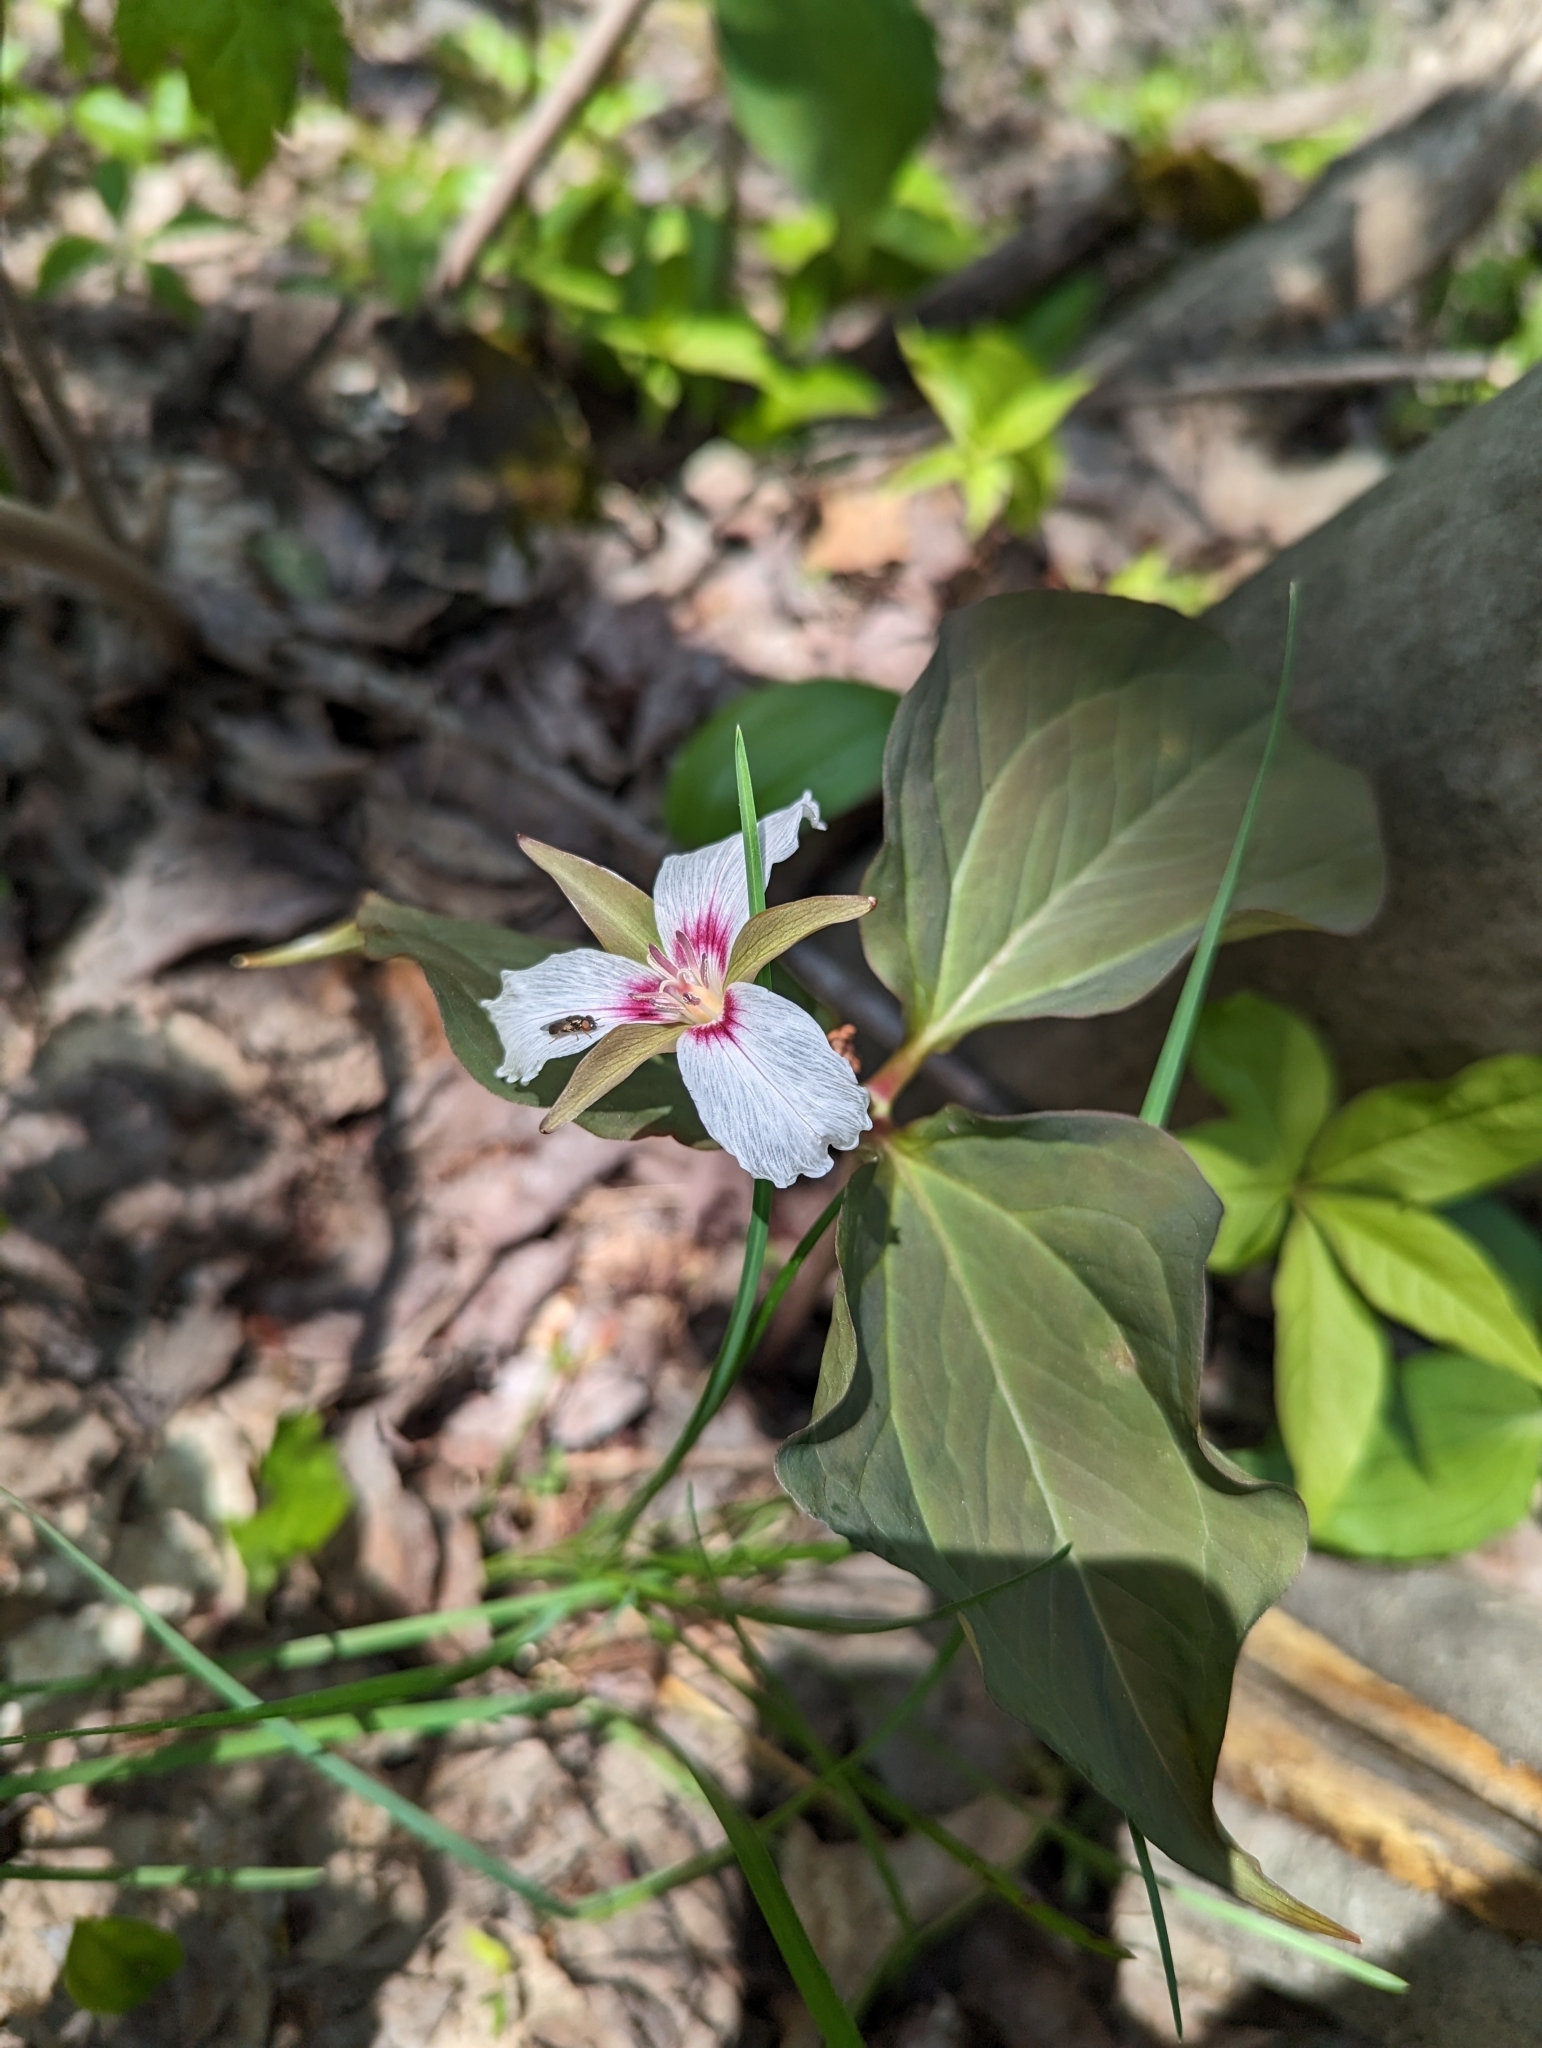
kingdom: Plantae
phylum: Tracheophyta
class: Liliopsida
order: Liliales
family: Melanthiaceae
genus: Trillium
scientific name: Trillium undulatum
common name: Paint trillium
